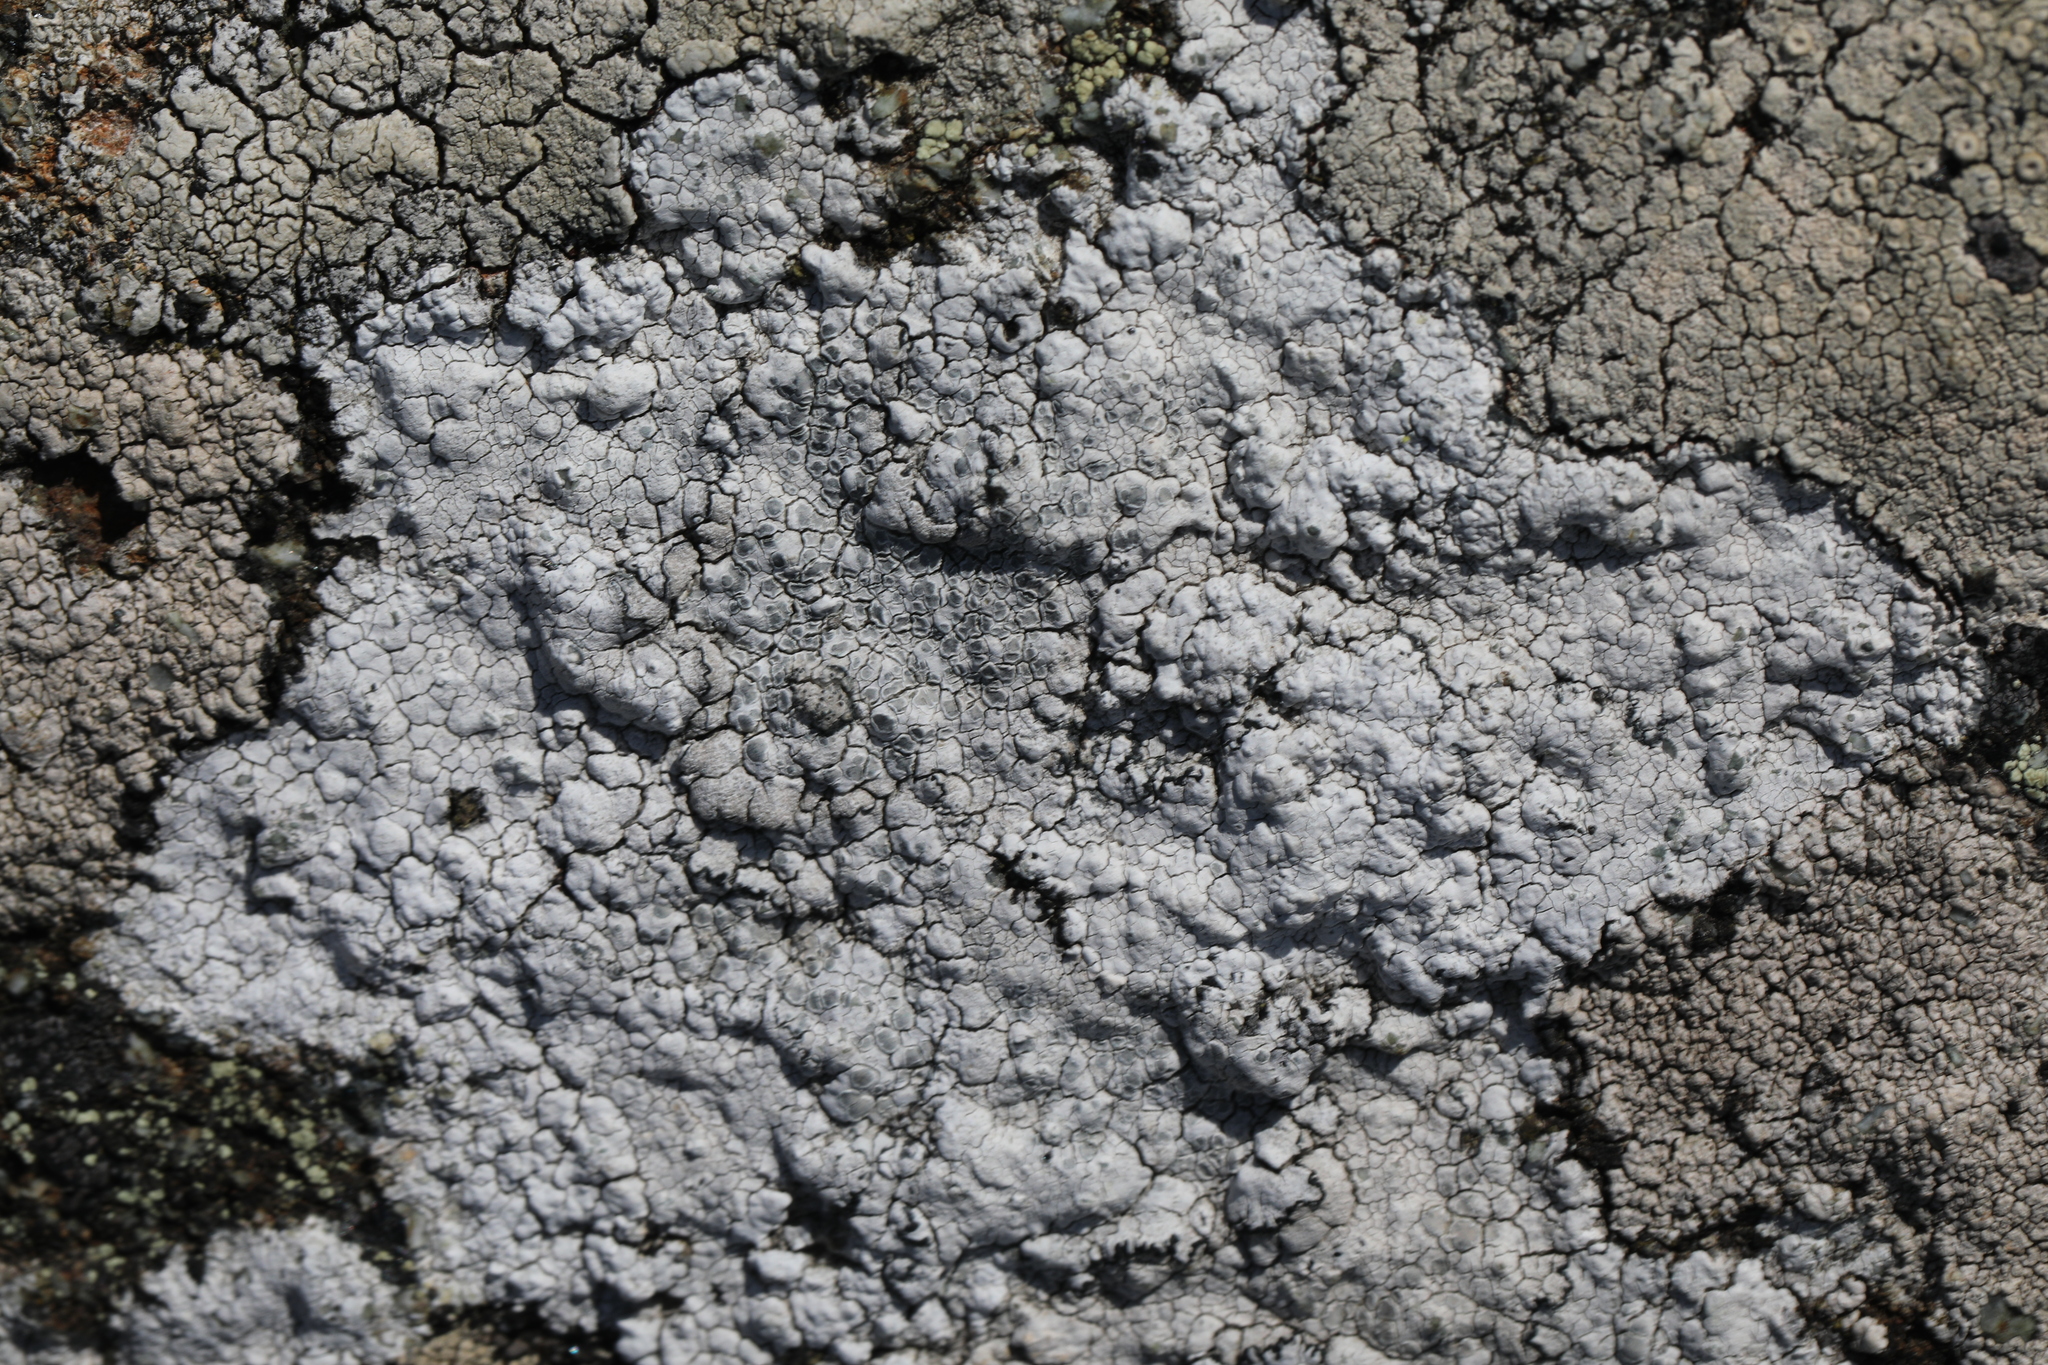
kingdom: Fungi
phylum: Ascomycota
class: Lecanoromycetes
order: Lecanorales
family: Lecanoraceae
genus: Glaucomaria
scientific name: Glaucomaria rupicola
